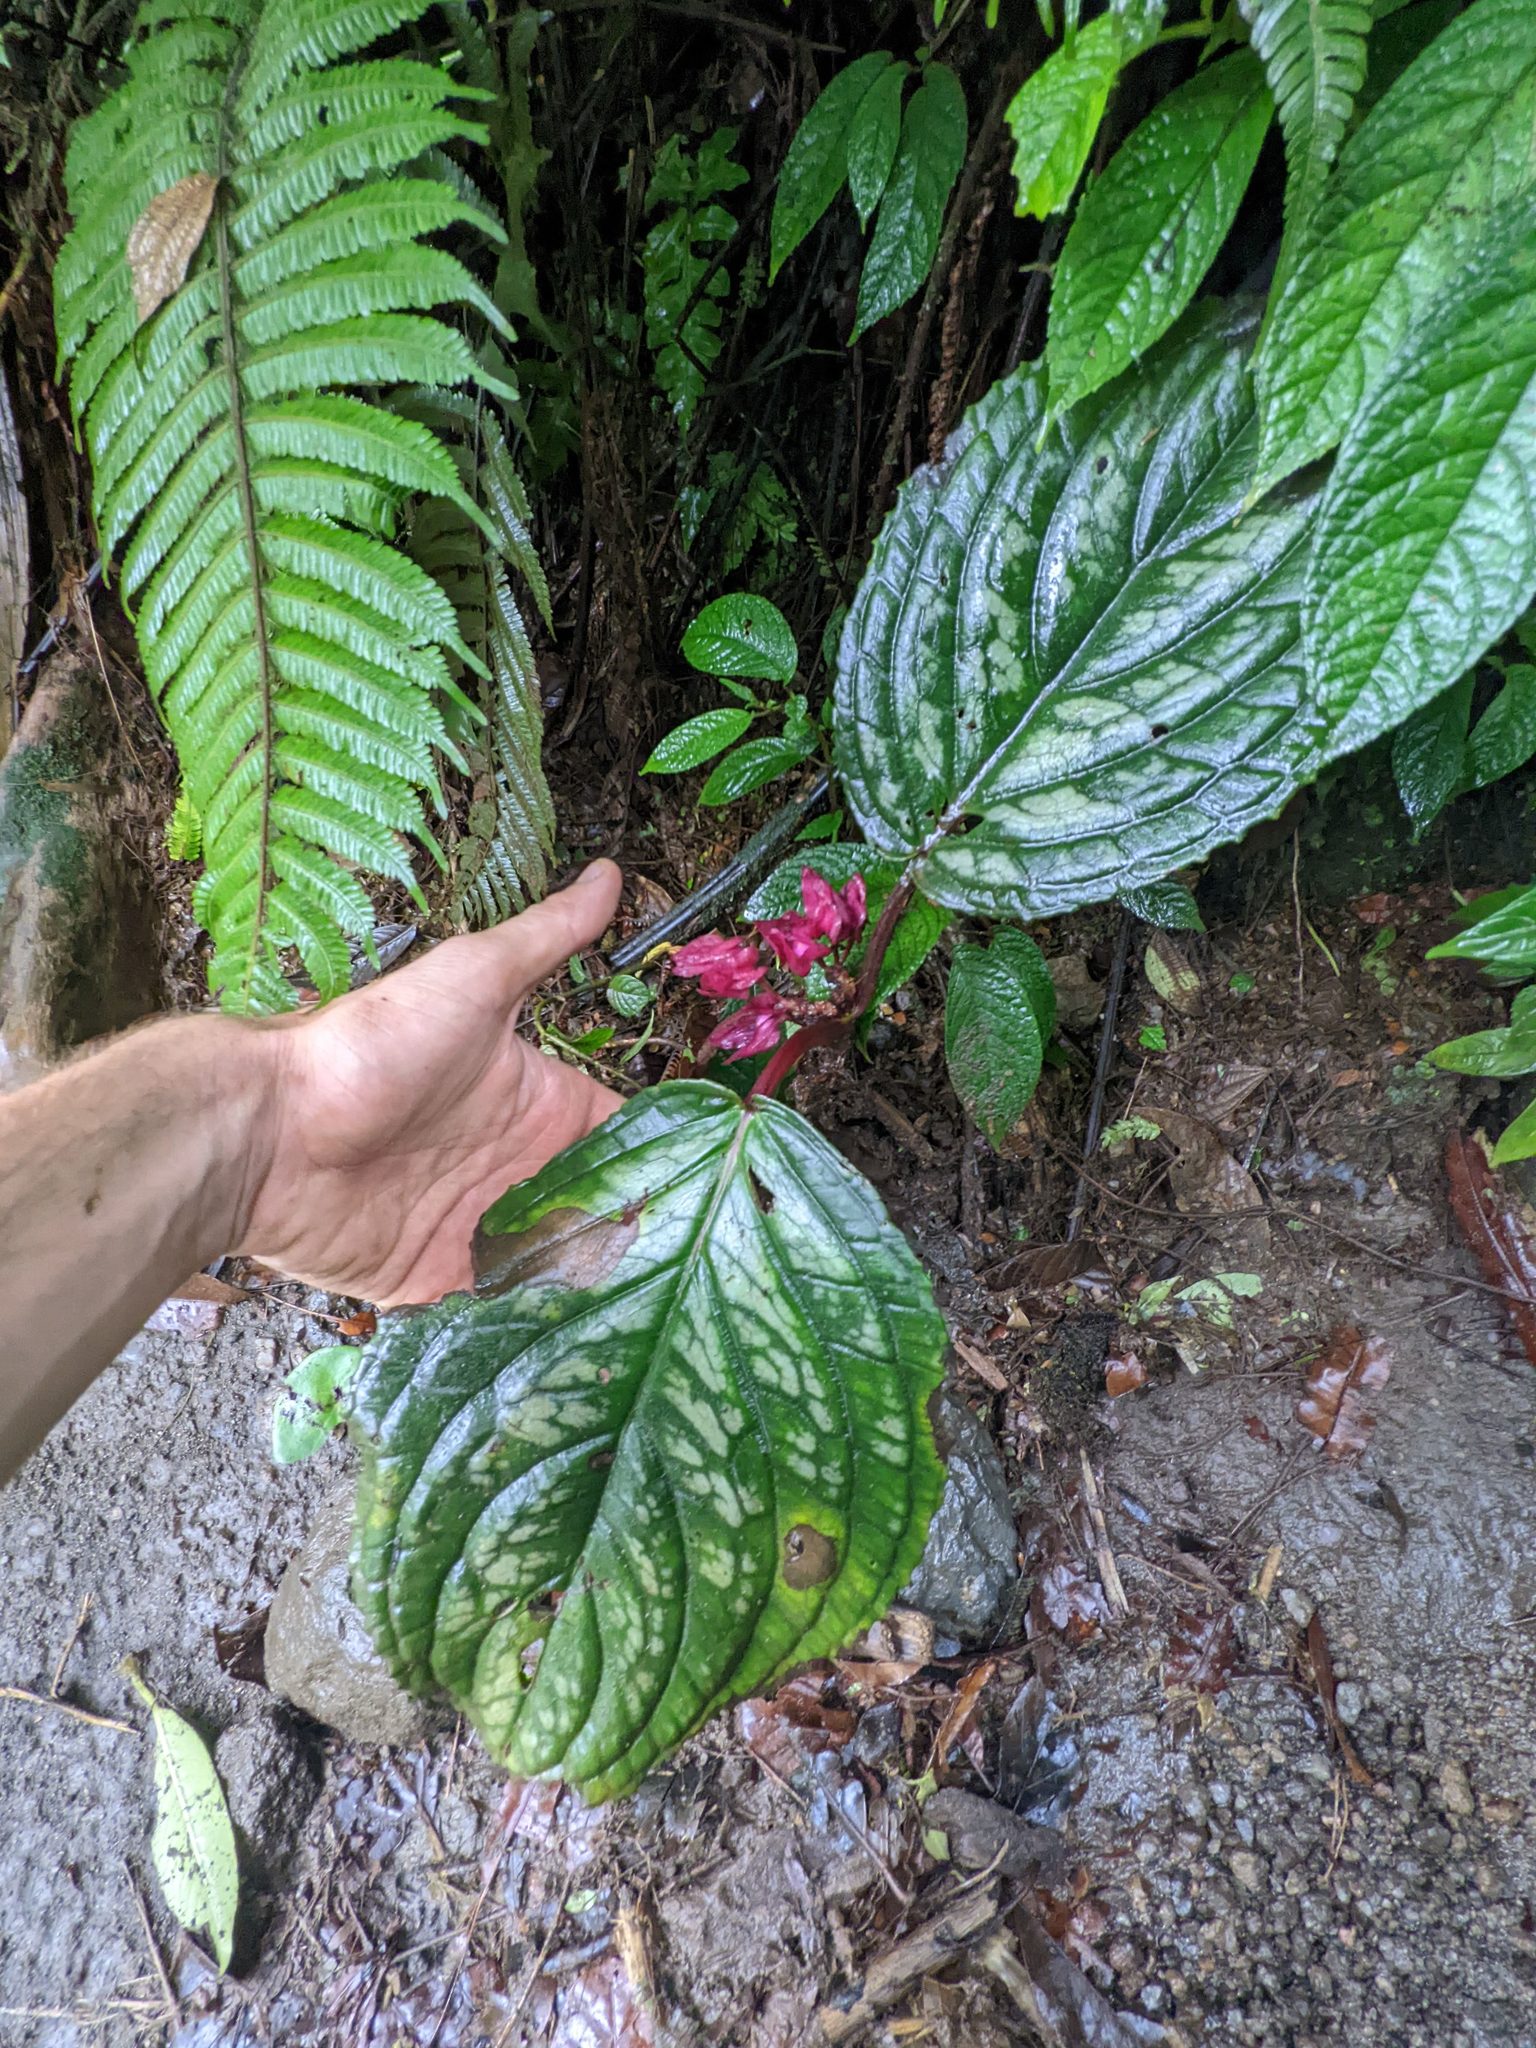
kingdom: Plantae
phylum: Tracheophyta
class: Magnoliopsida
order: Lamiales
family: Gesneriaceae
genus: Drymonia
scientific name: Drymonia turrialvae
